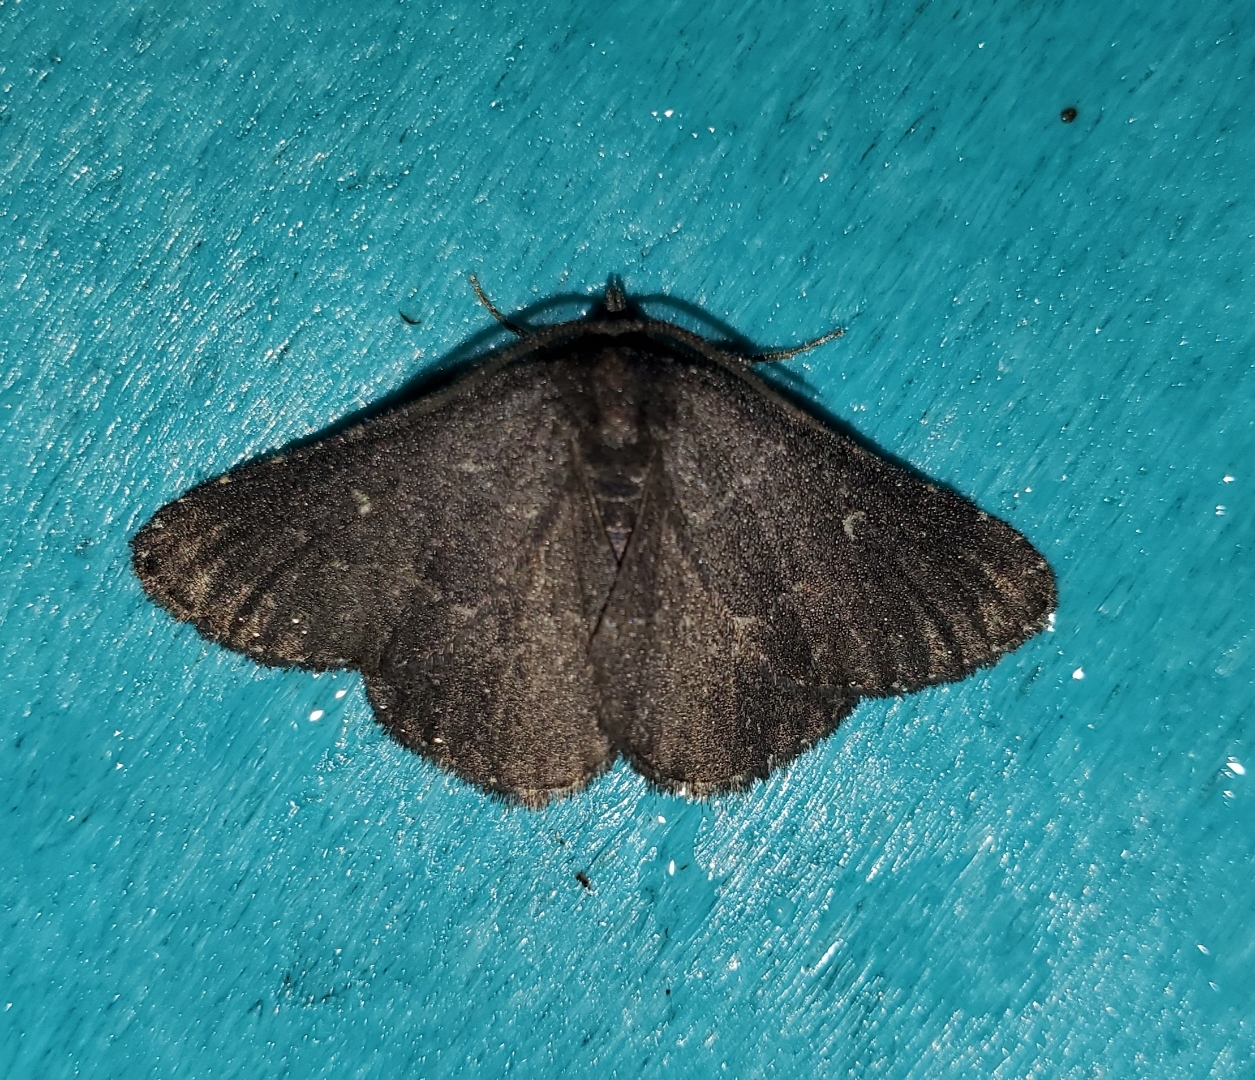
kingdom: Animalia
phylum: Arthropoda
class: Insecta
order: Lepidoptera
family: Erebidae
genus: Prosoparia
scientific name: Prosoparia floridana
